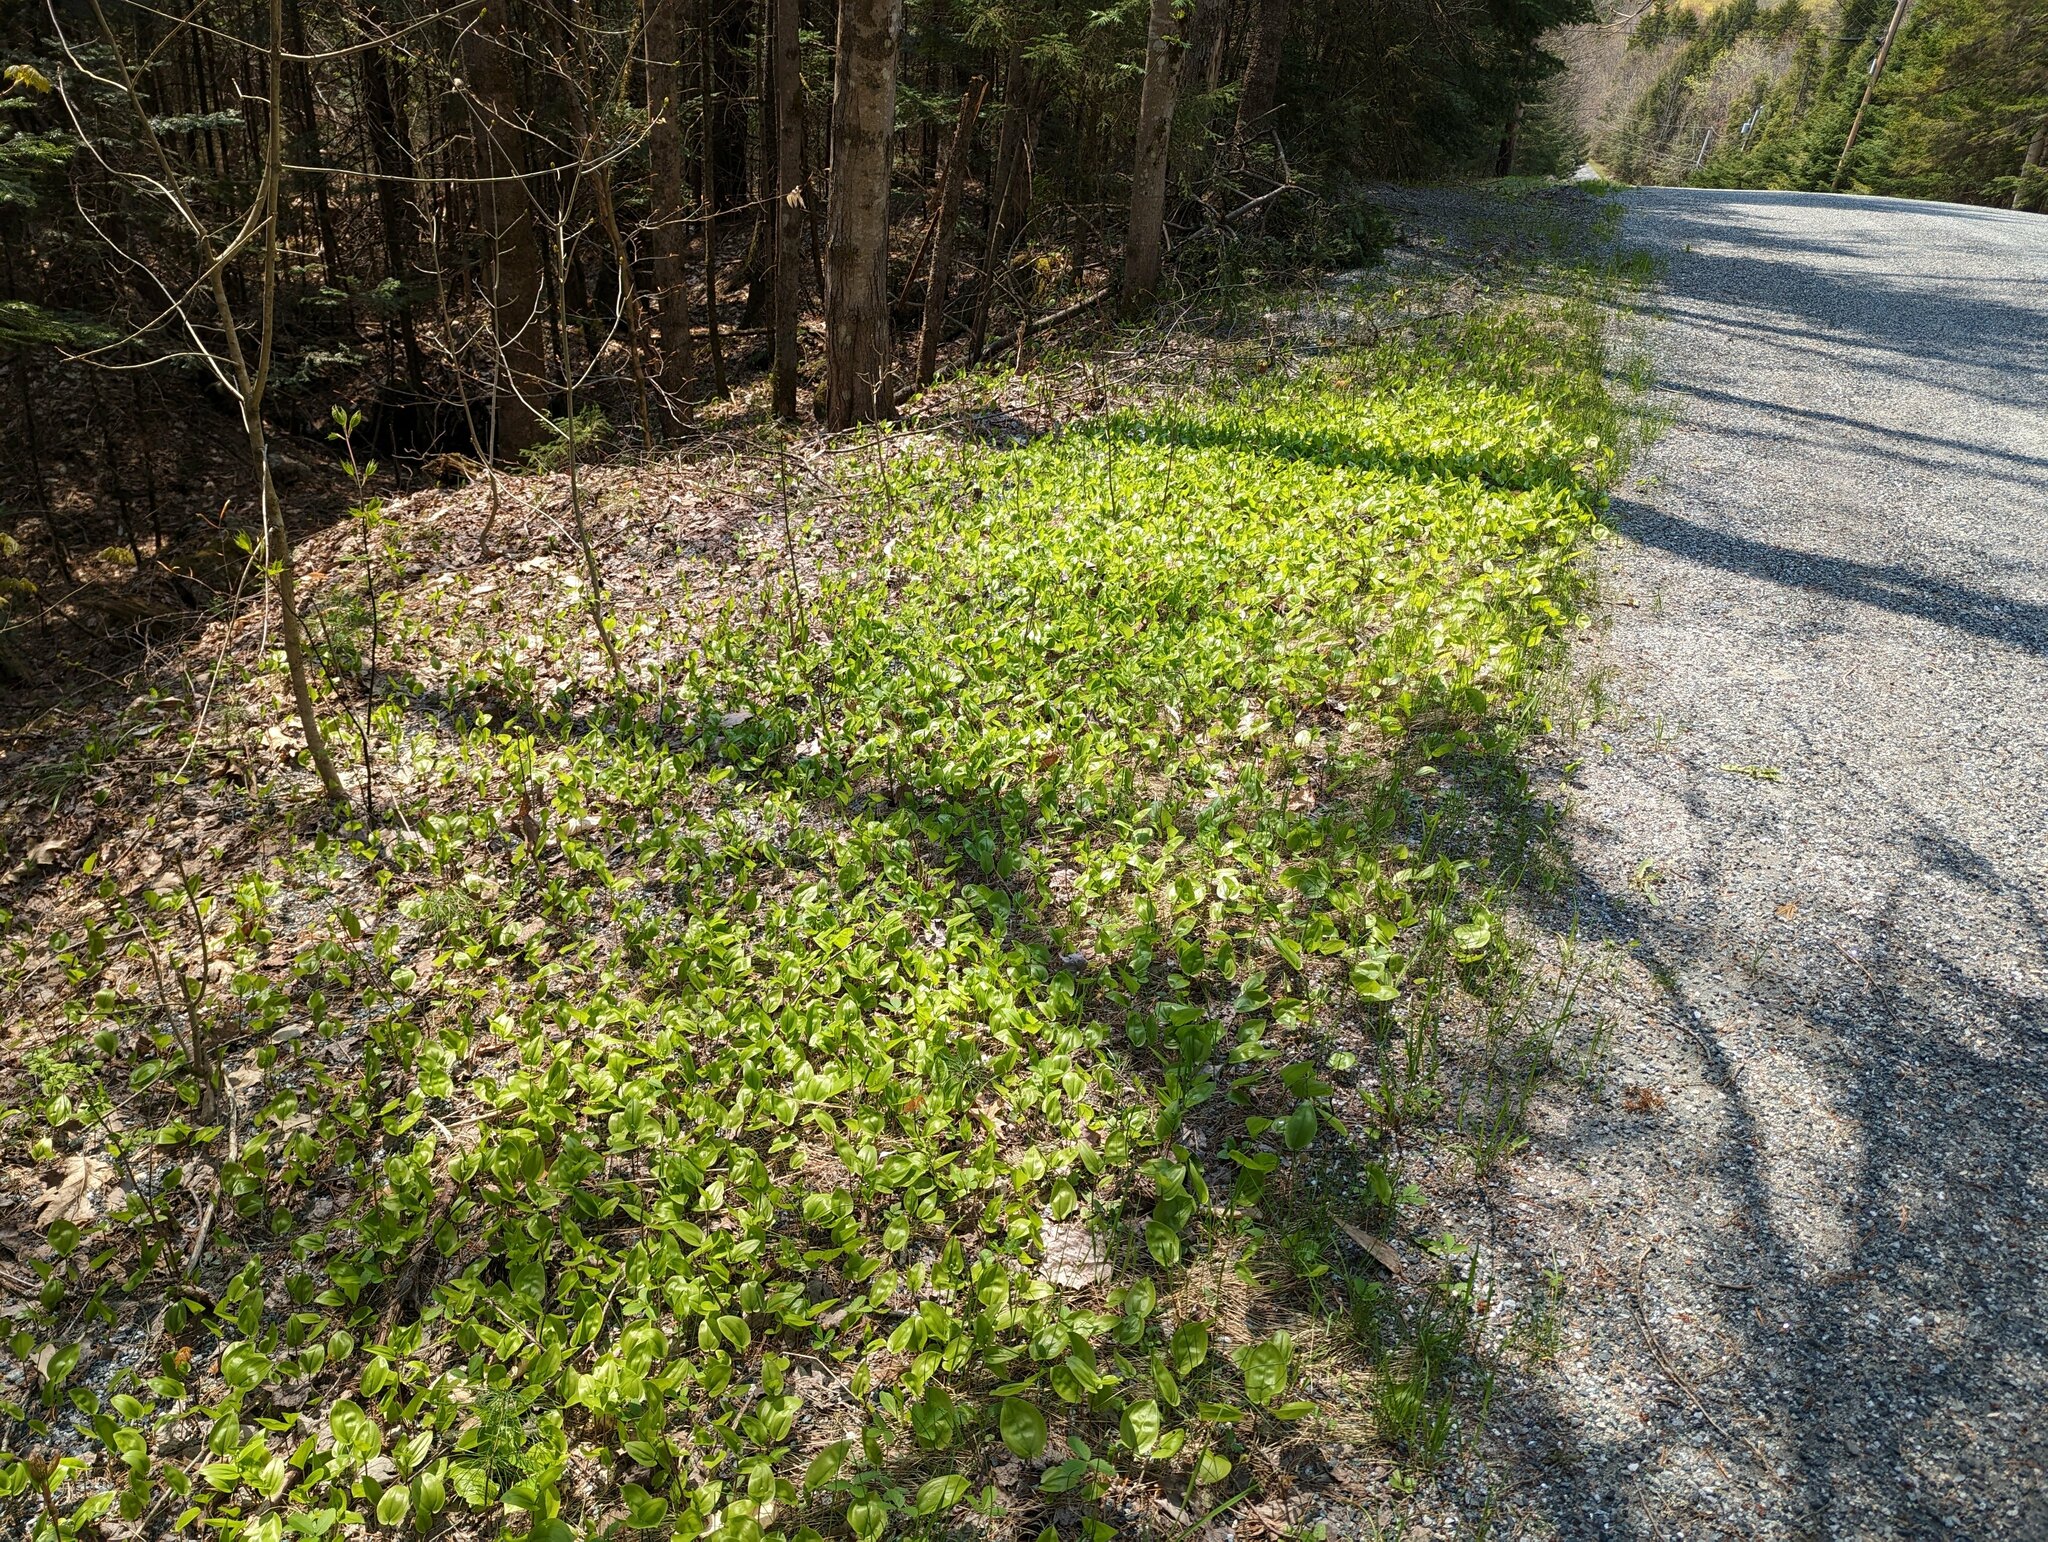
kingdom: Plantae
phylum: Tracheophyta
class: Liliopsida
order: Asparagales
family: Asparagaceae
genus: Maianthemum
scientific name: Maianthemum canadense
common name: False lily-of-the-valley
